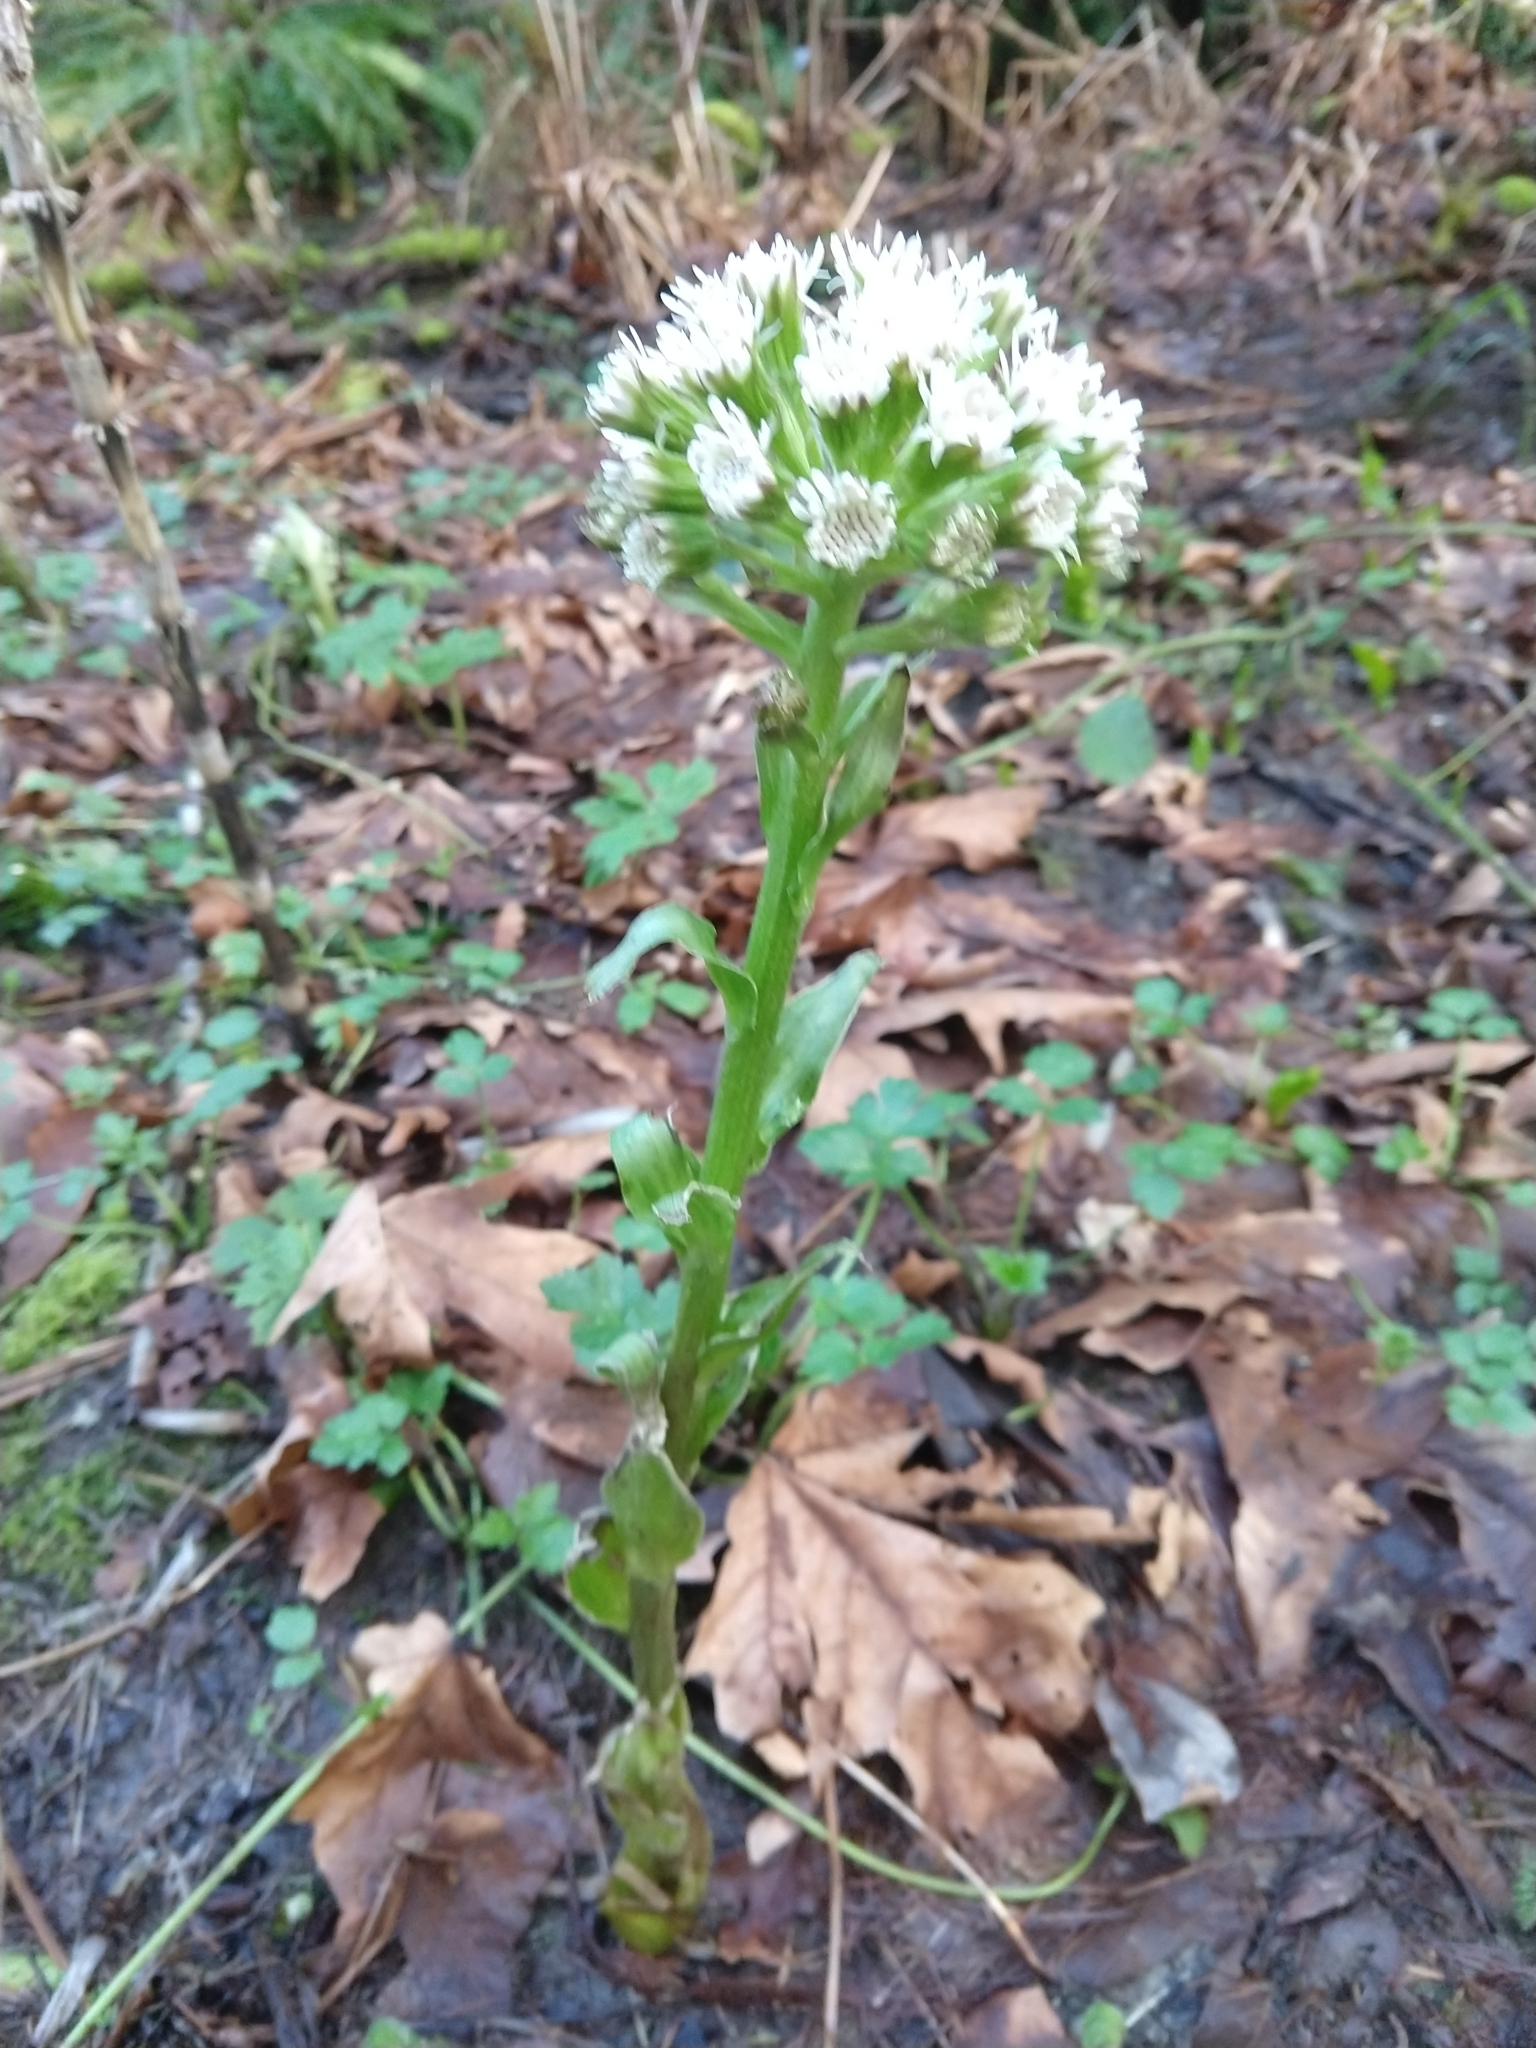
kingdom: Plantae
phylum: Tracheophyta
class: Magnoliopsida
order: Asterales
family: Asteraceae
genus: Petasites
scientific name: Petasites frigidus
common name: Arctic butterbur
